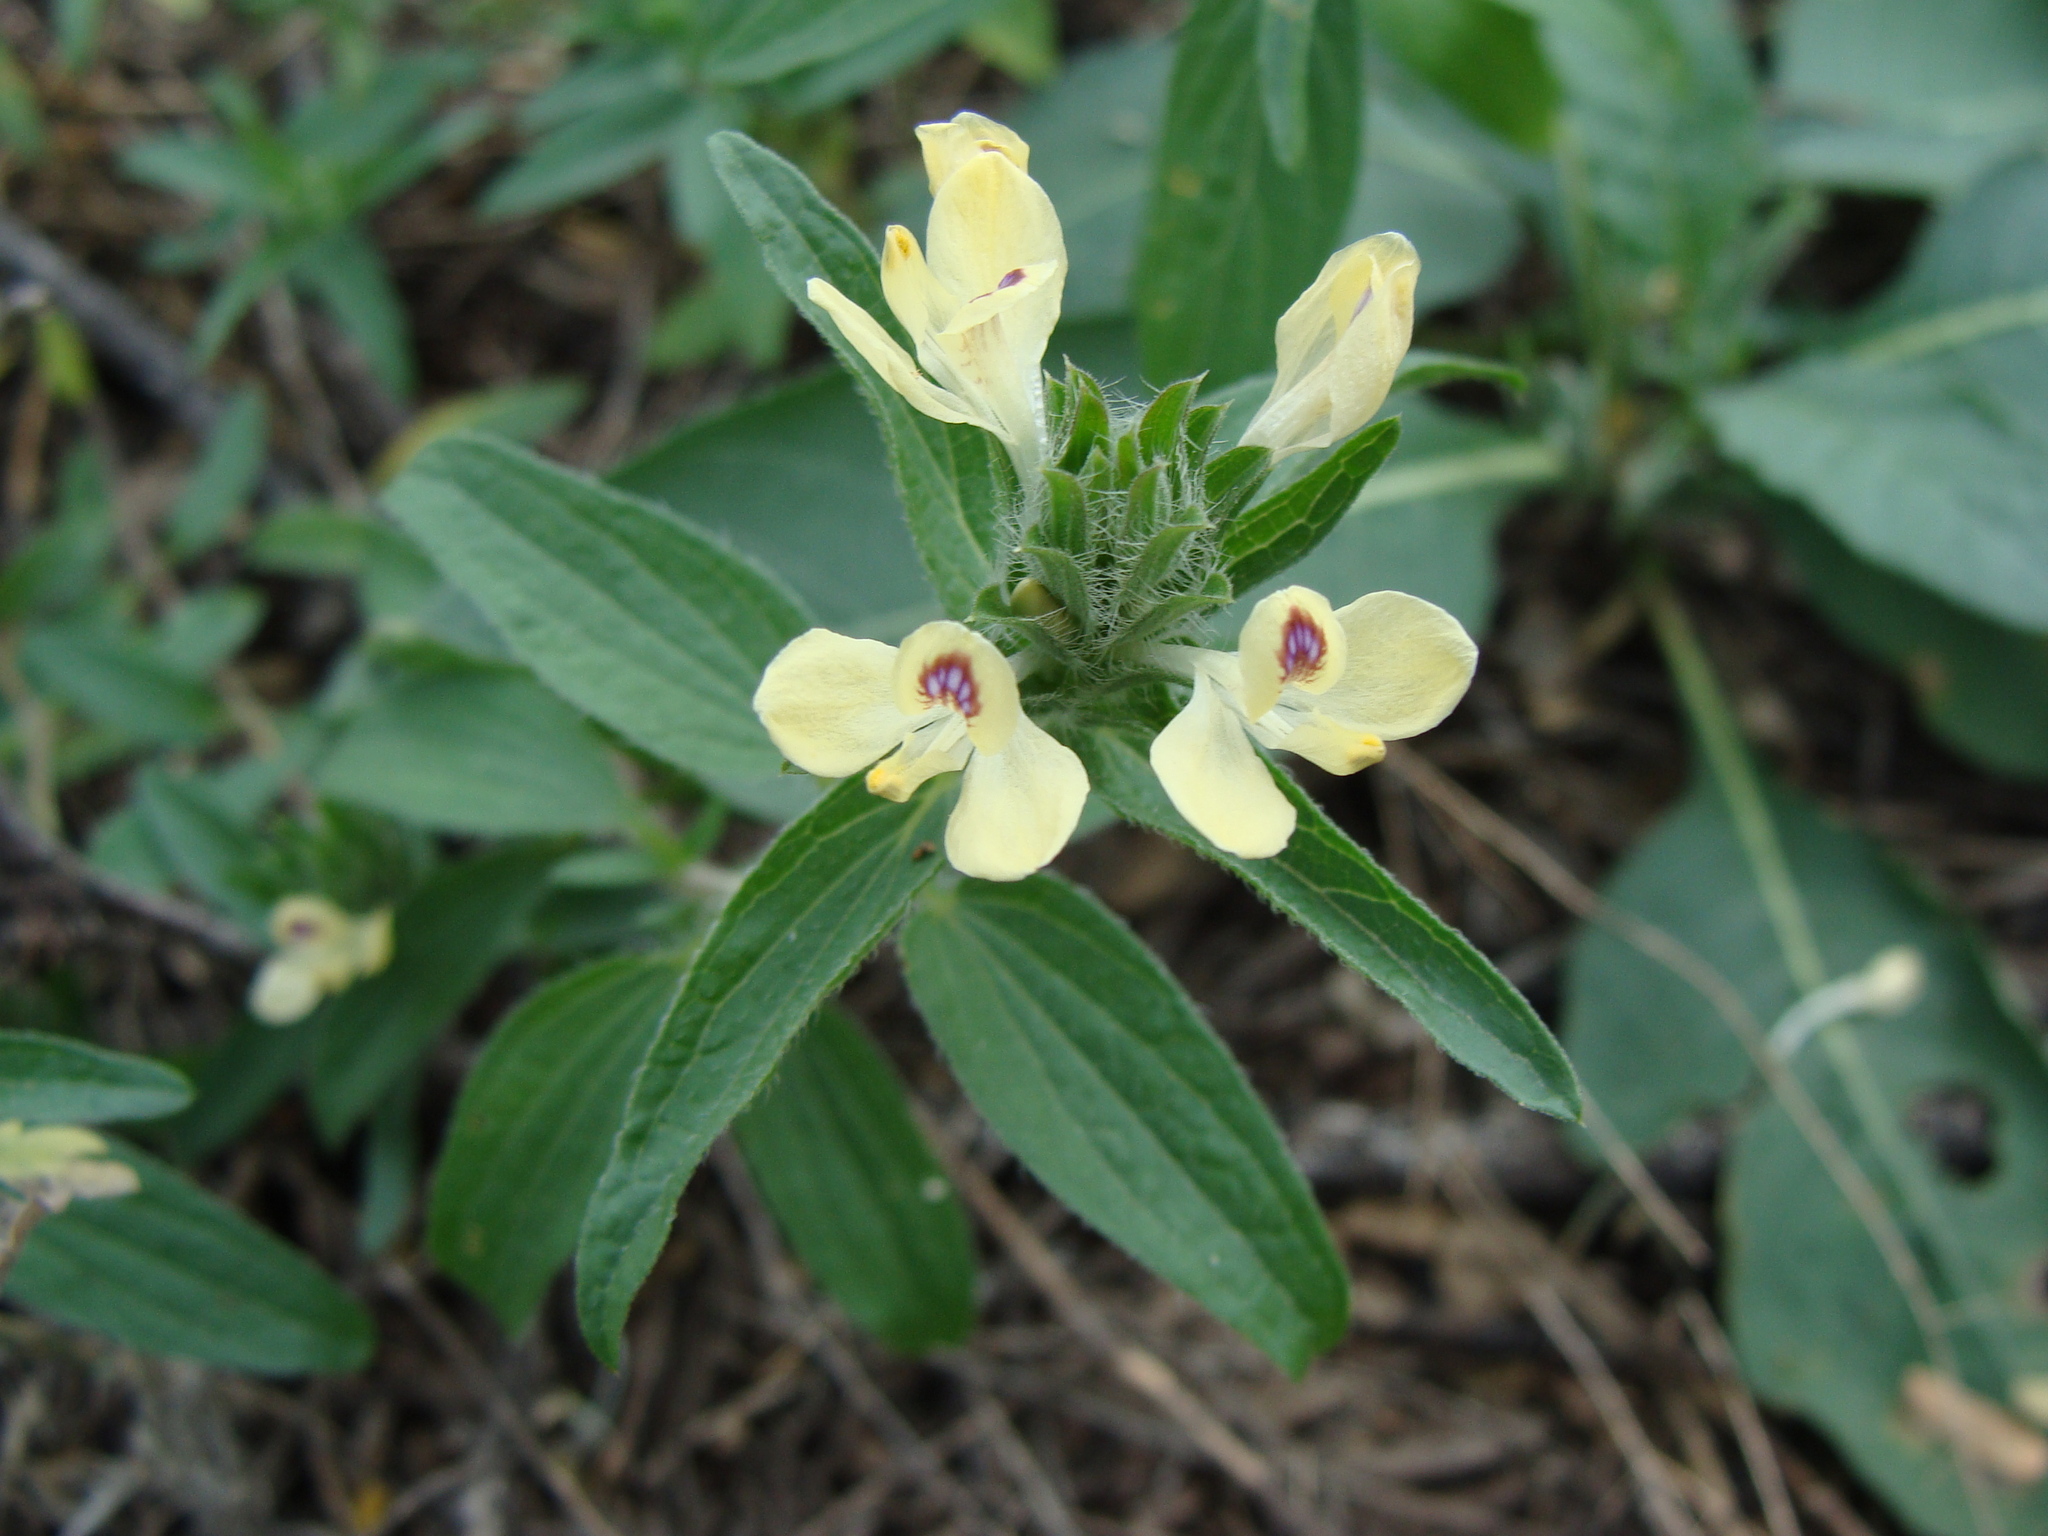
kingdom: Plantae
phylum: Tracheophyta
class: Magnoliopsida
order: Lamiales
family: Acanthaceae
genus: Tetramerium
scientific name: Tetramerium nervosum
